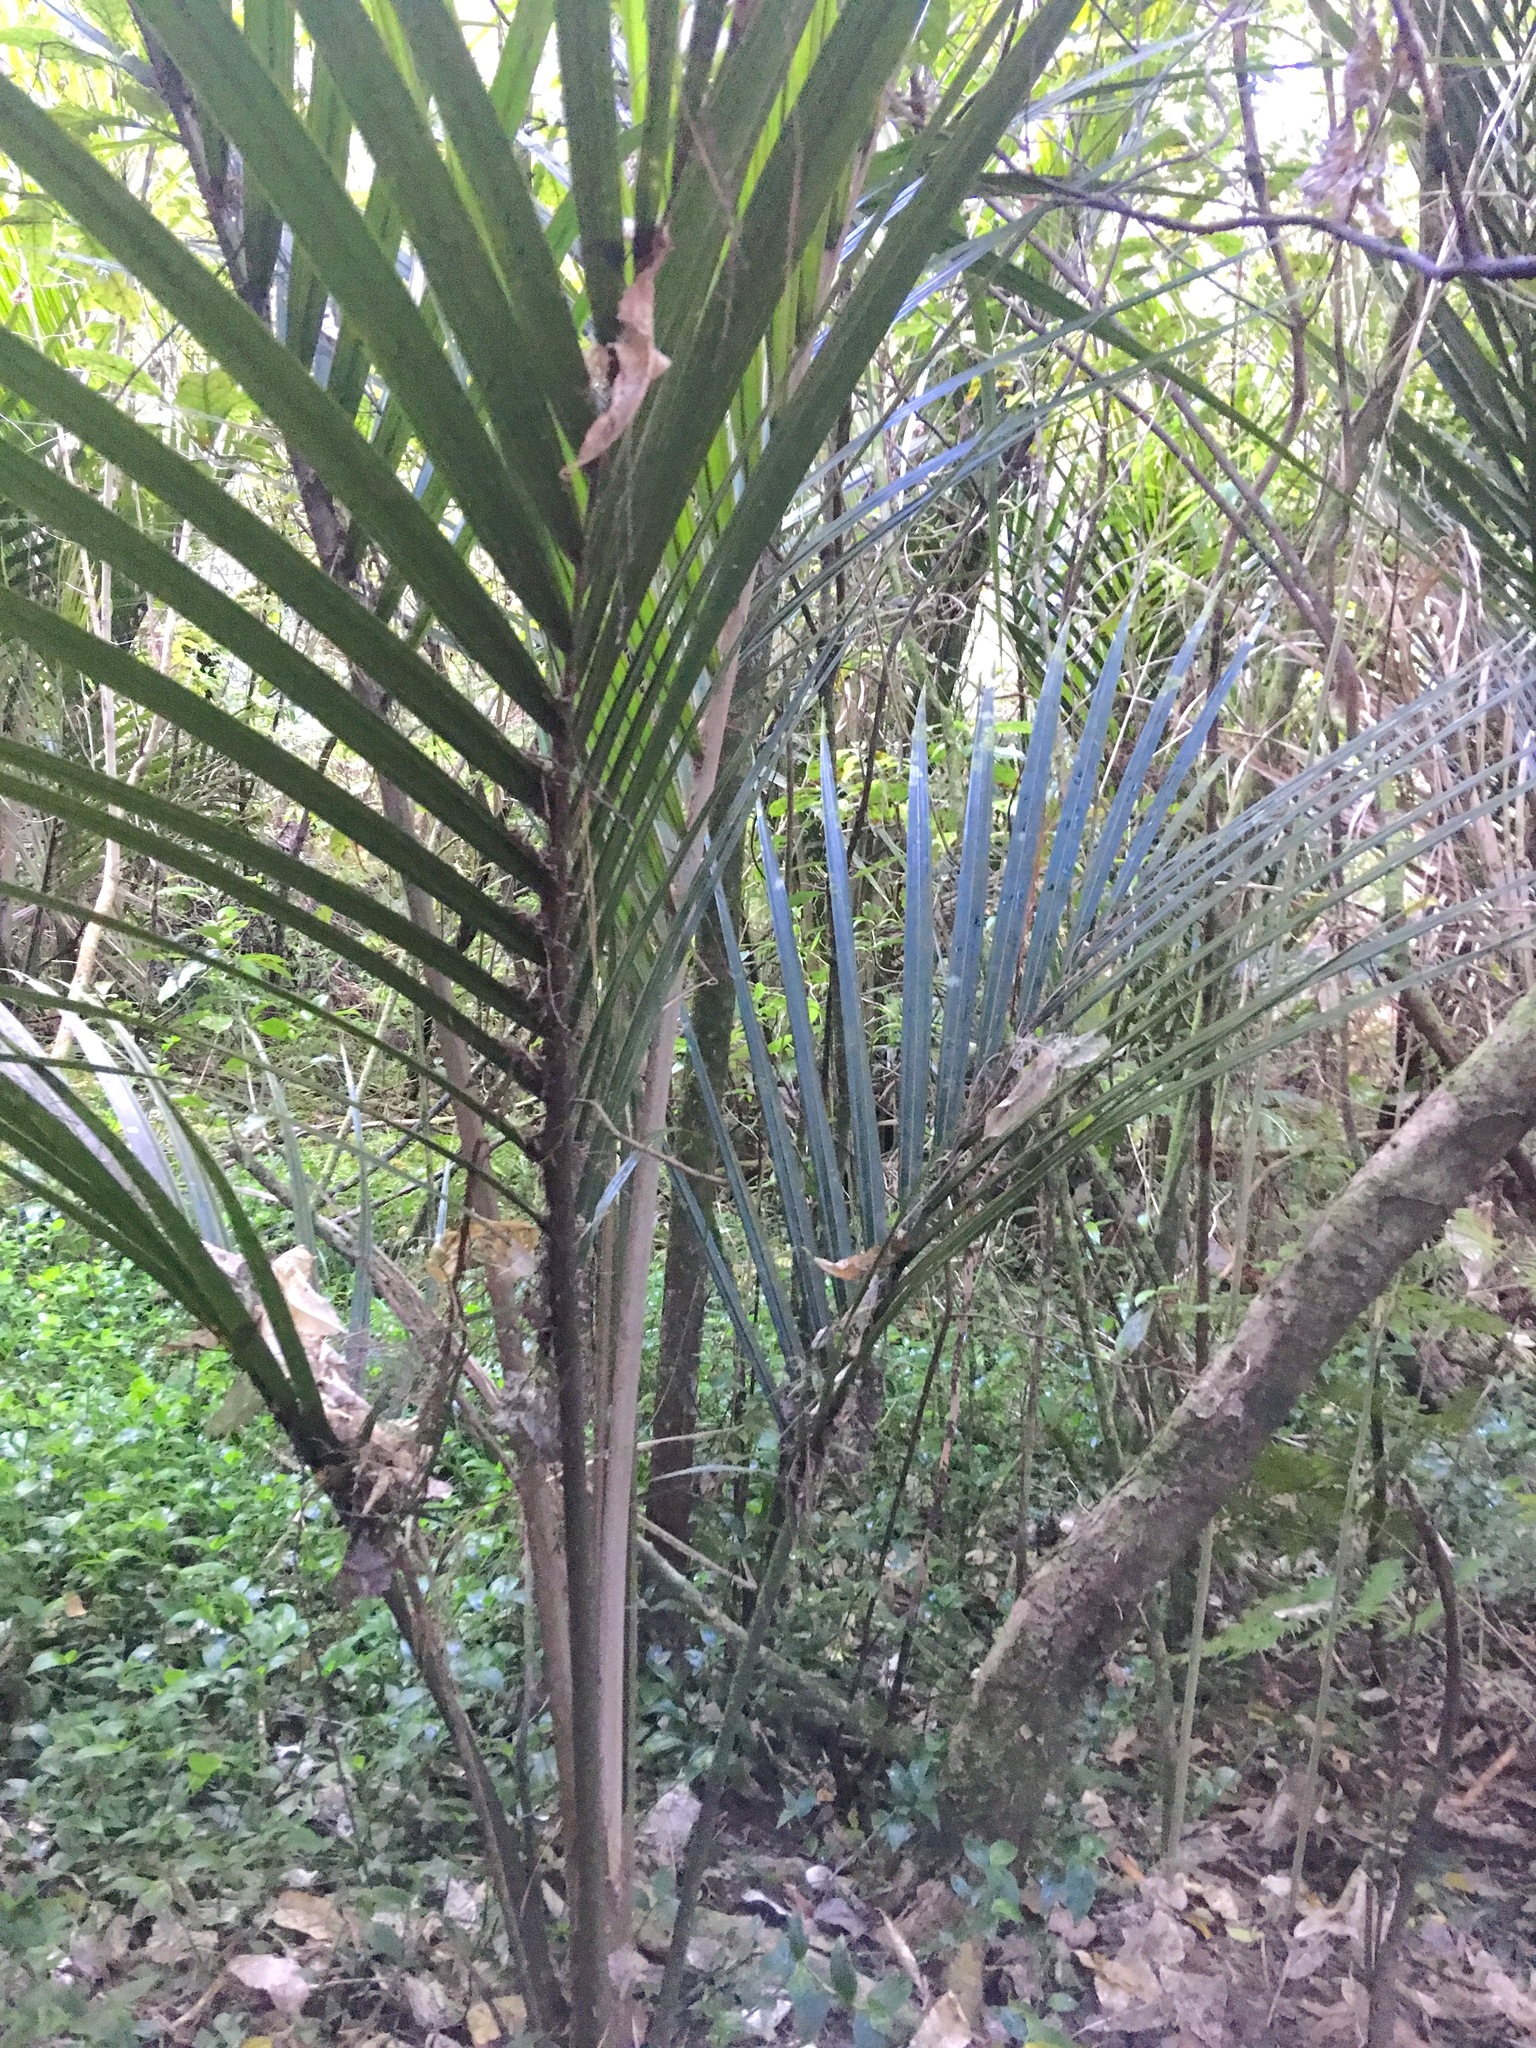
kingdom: Plantae
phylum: Tracheophyta
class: Liliopsida
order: Arecales
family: Arecaceae
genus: Rhopalostylis
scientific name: Rhopalostylis sapida
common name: Feather-duster palm
